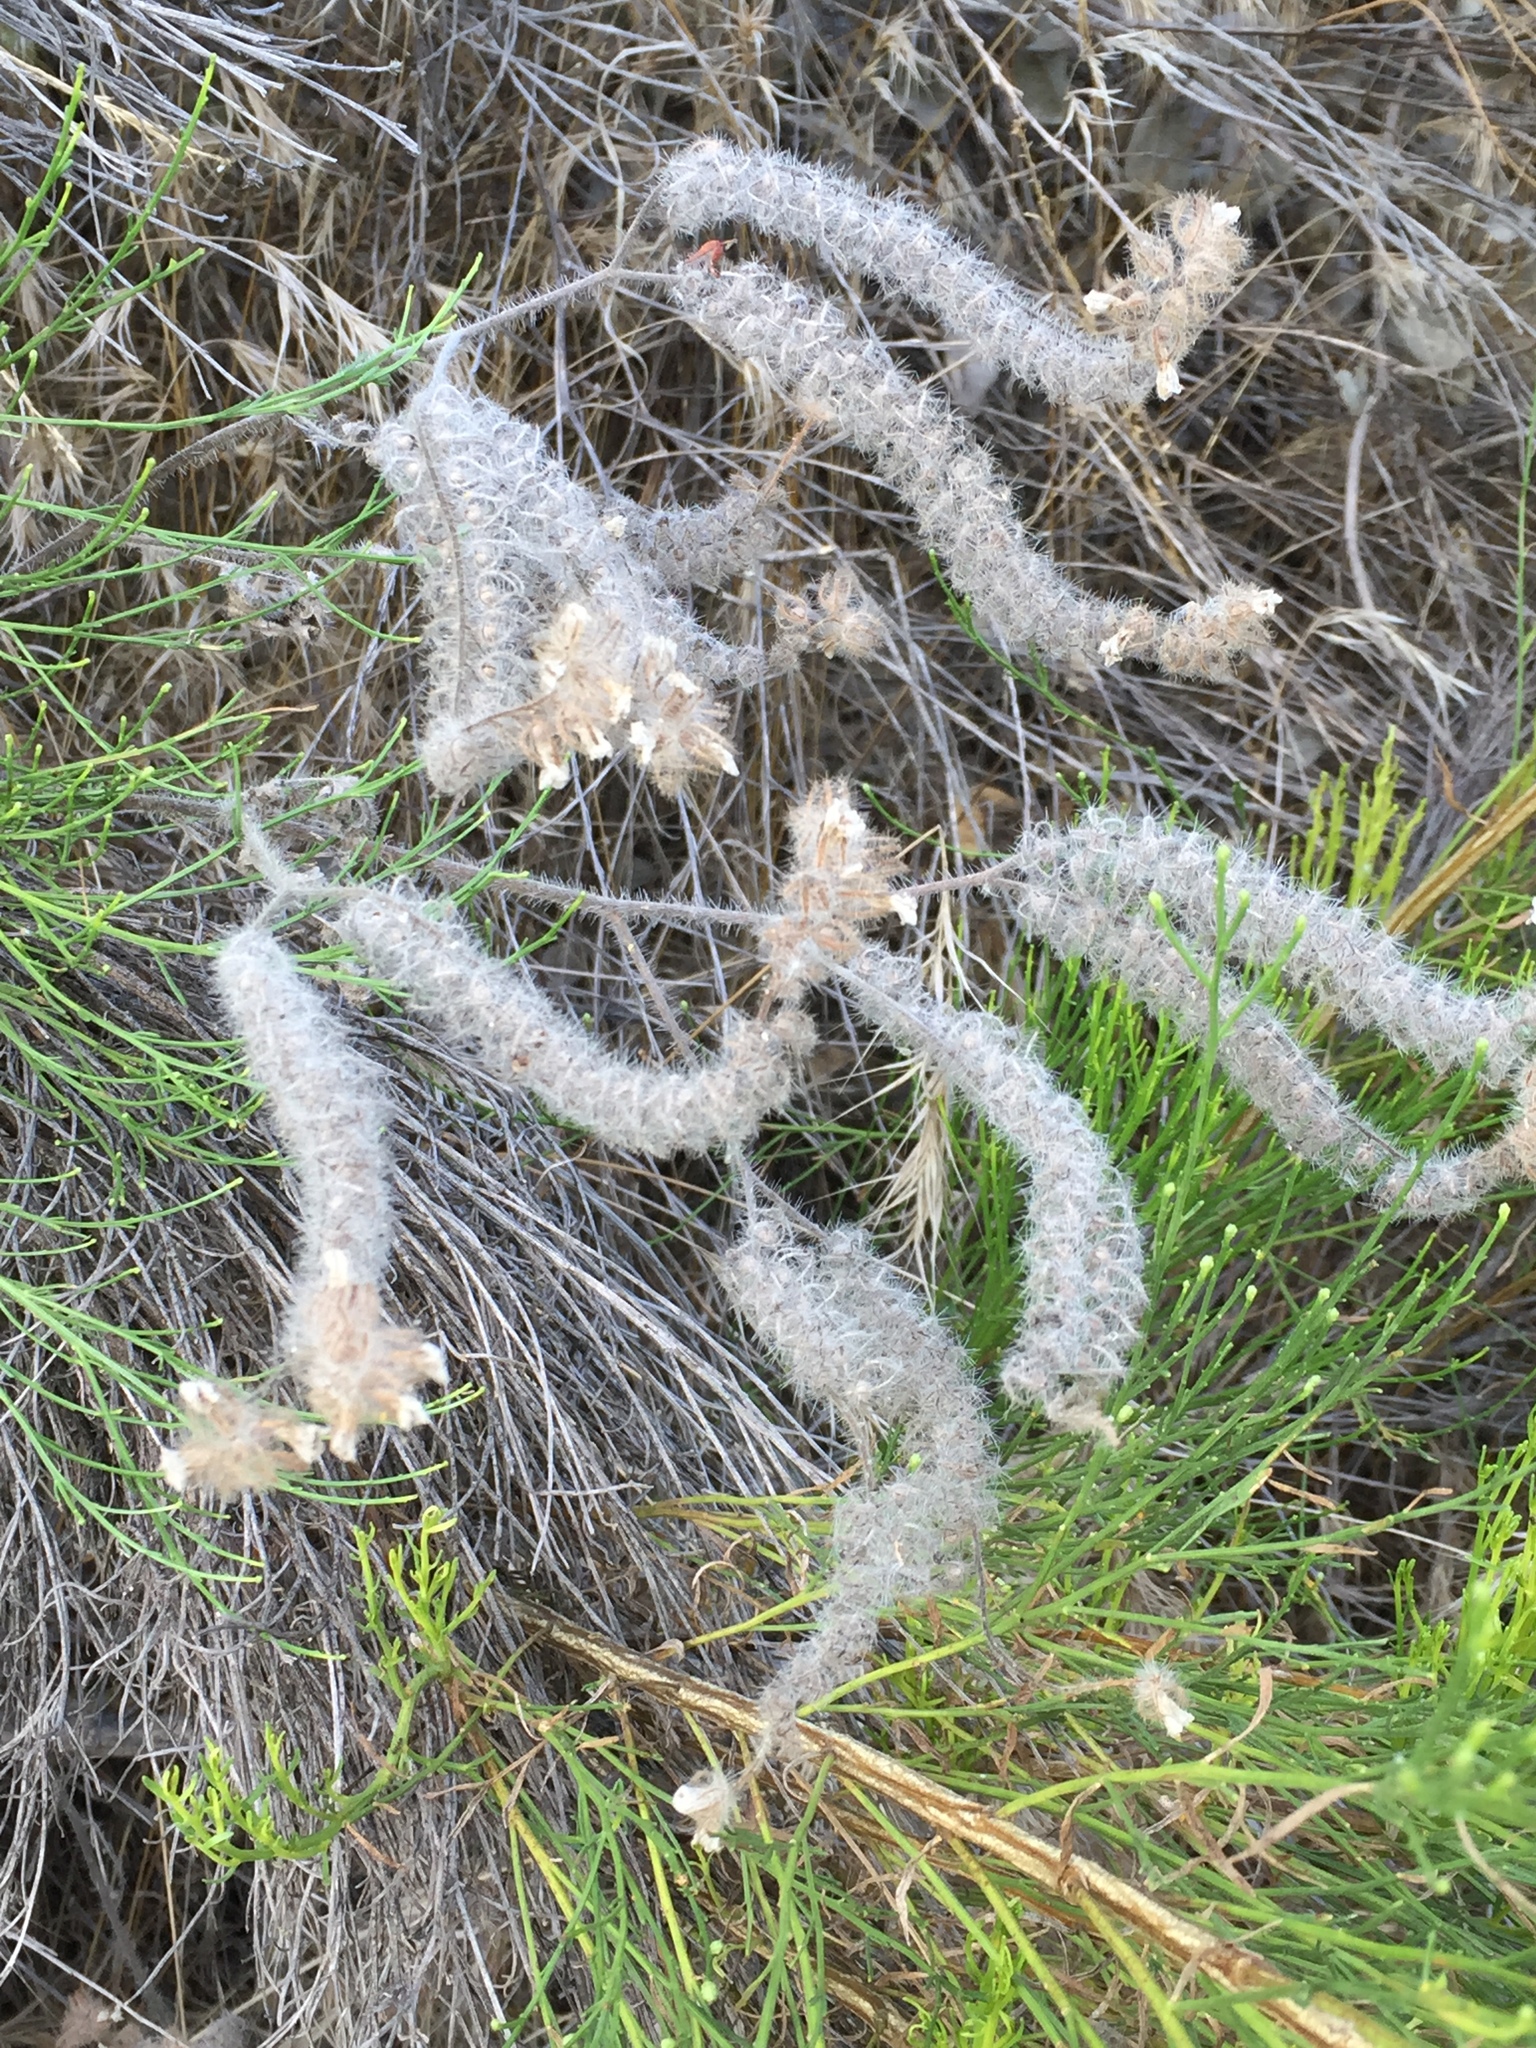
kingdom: Plantae
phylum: Tracheophyta
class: Magnoliopsida
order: Boraginales
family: Hydrophyllaceae
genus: Phacelia
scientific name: Phacelia cicutaria
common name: Caterpillar phacelia
